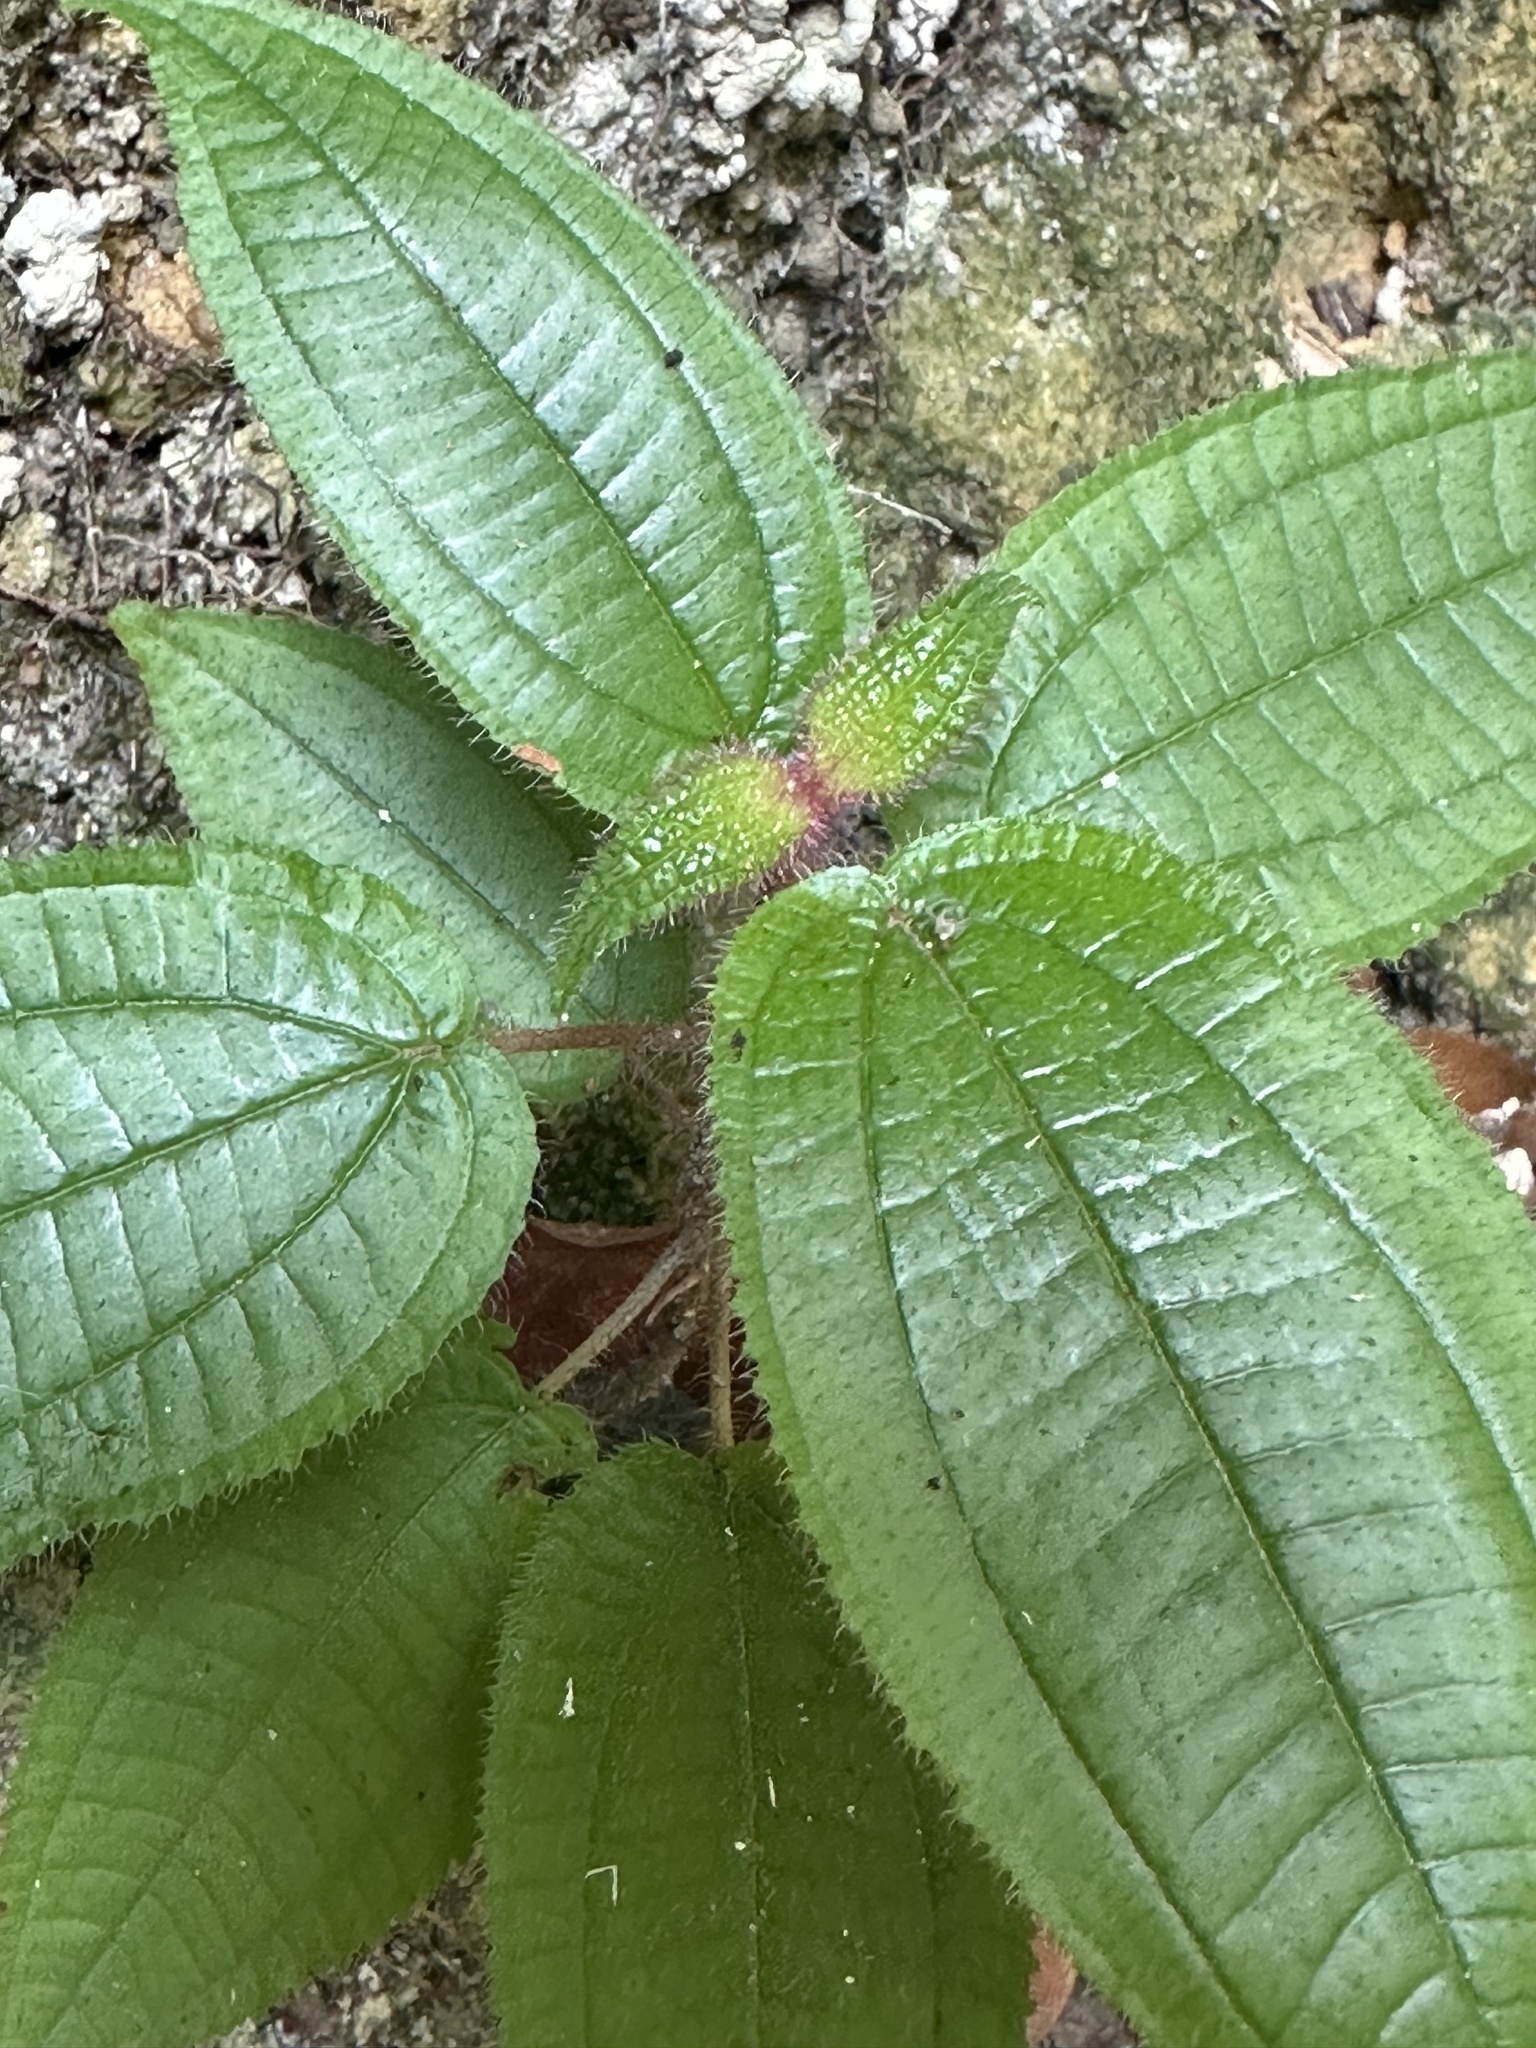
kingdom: Plantae
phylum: Tracheophyta
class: Magnoliopsida
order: Myrtales
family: Melastomataceae
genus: Miconia
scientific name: Miconia crenata
